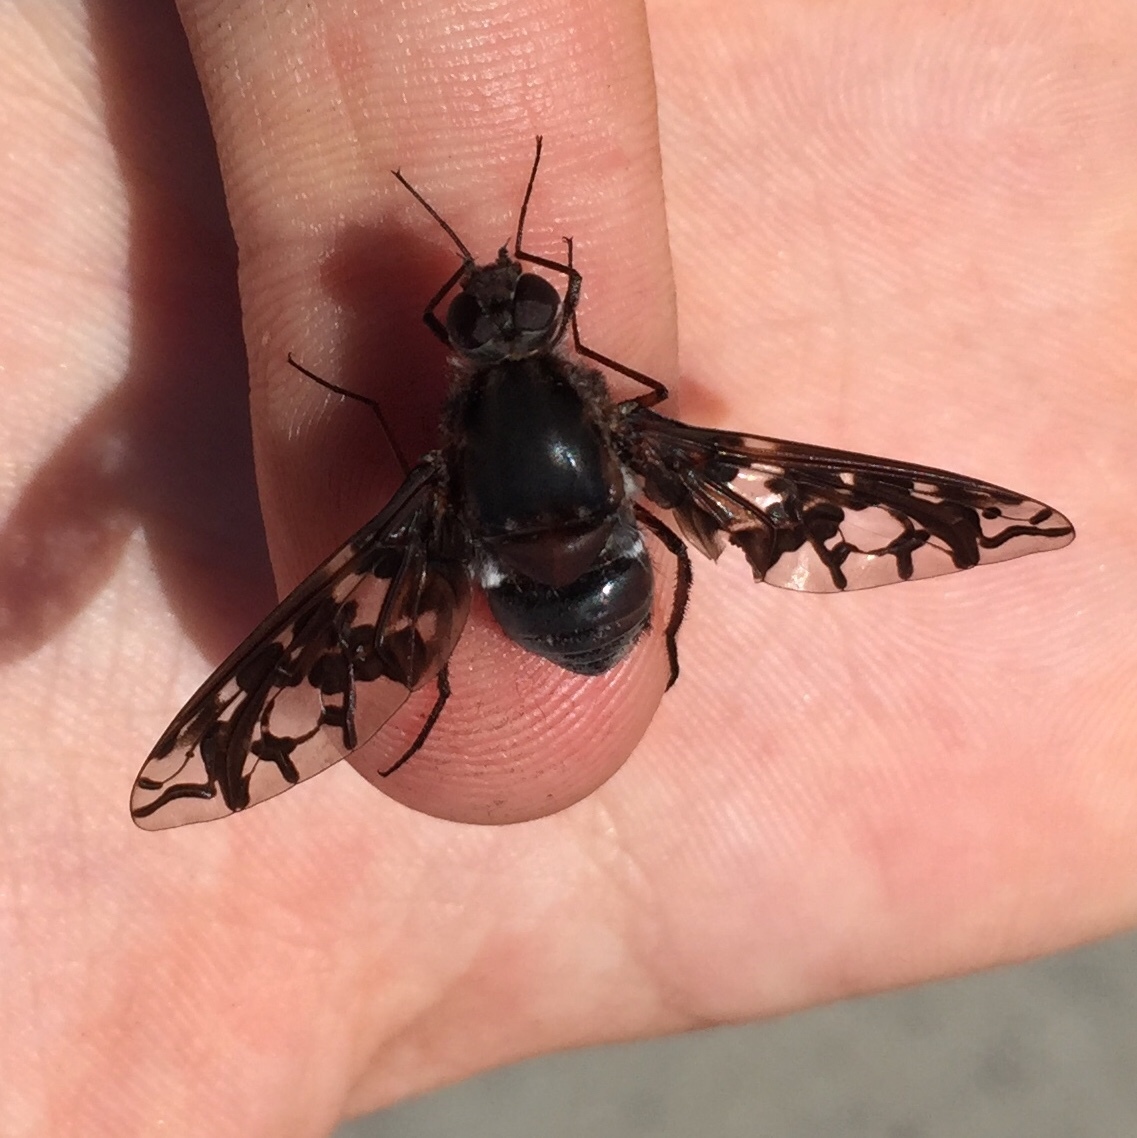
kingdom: Animalia
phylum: Arthropoda
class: Insecta
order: Diptera
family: Bombyliidae
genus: Xenox
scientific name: Xenox tigrinus
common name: Tiger bee fly
